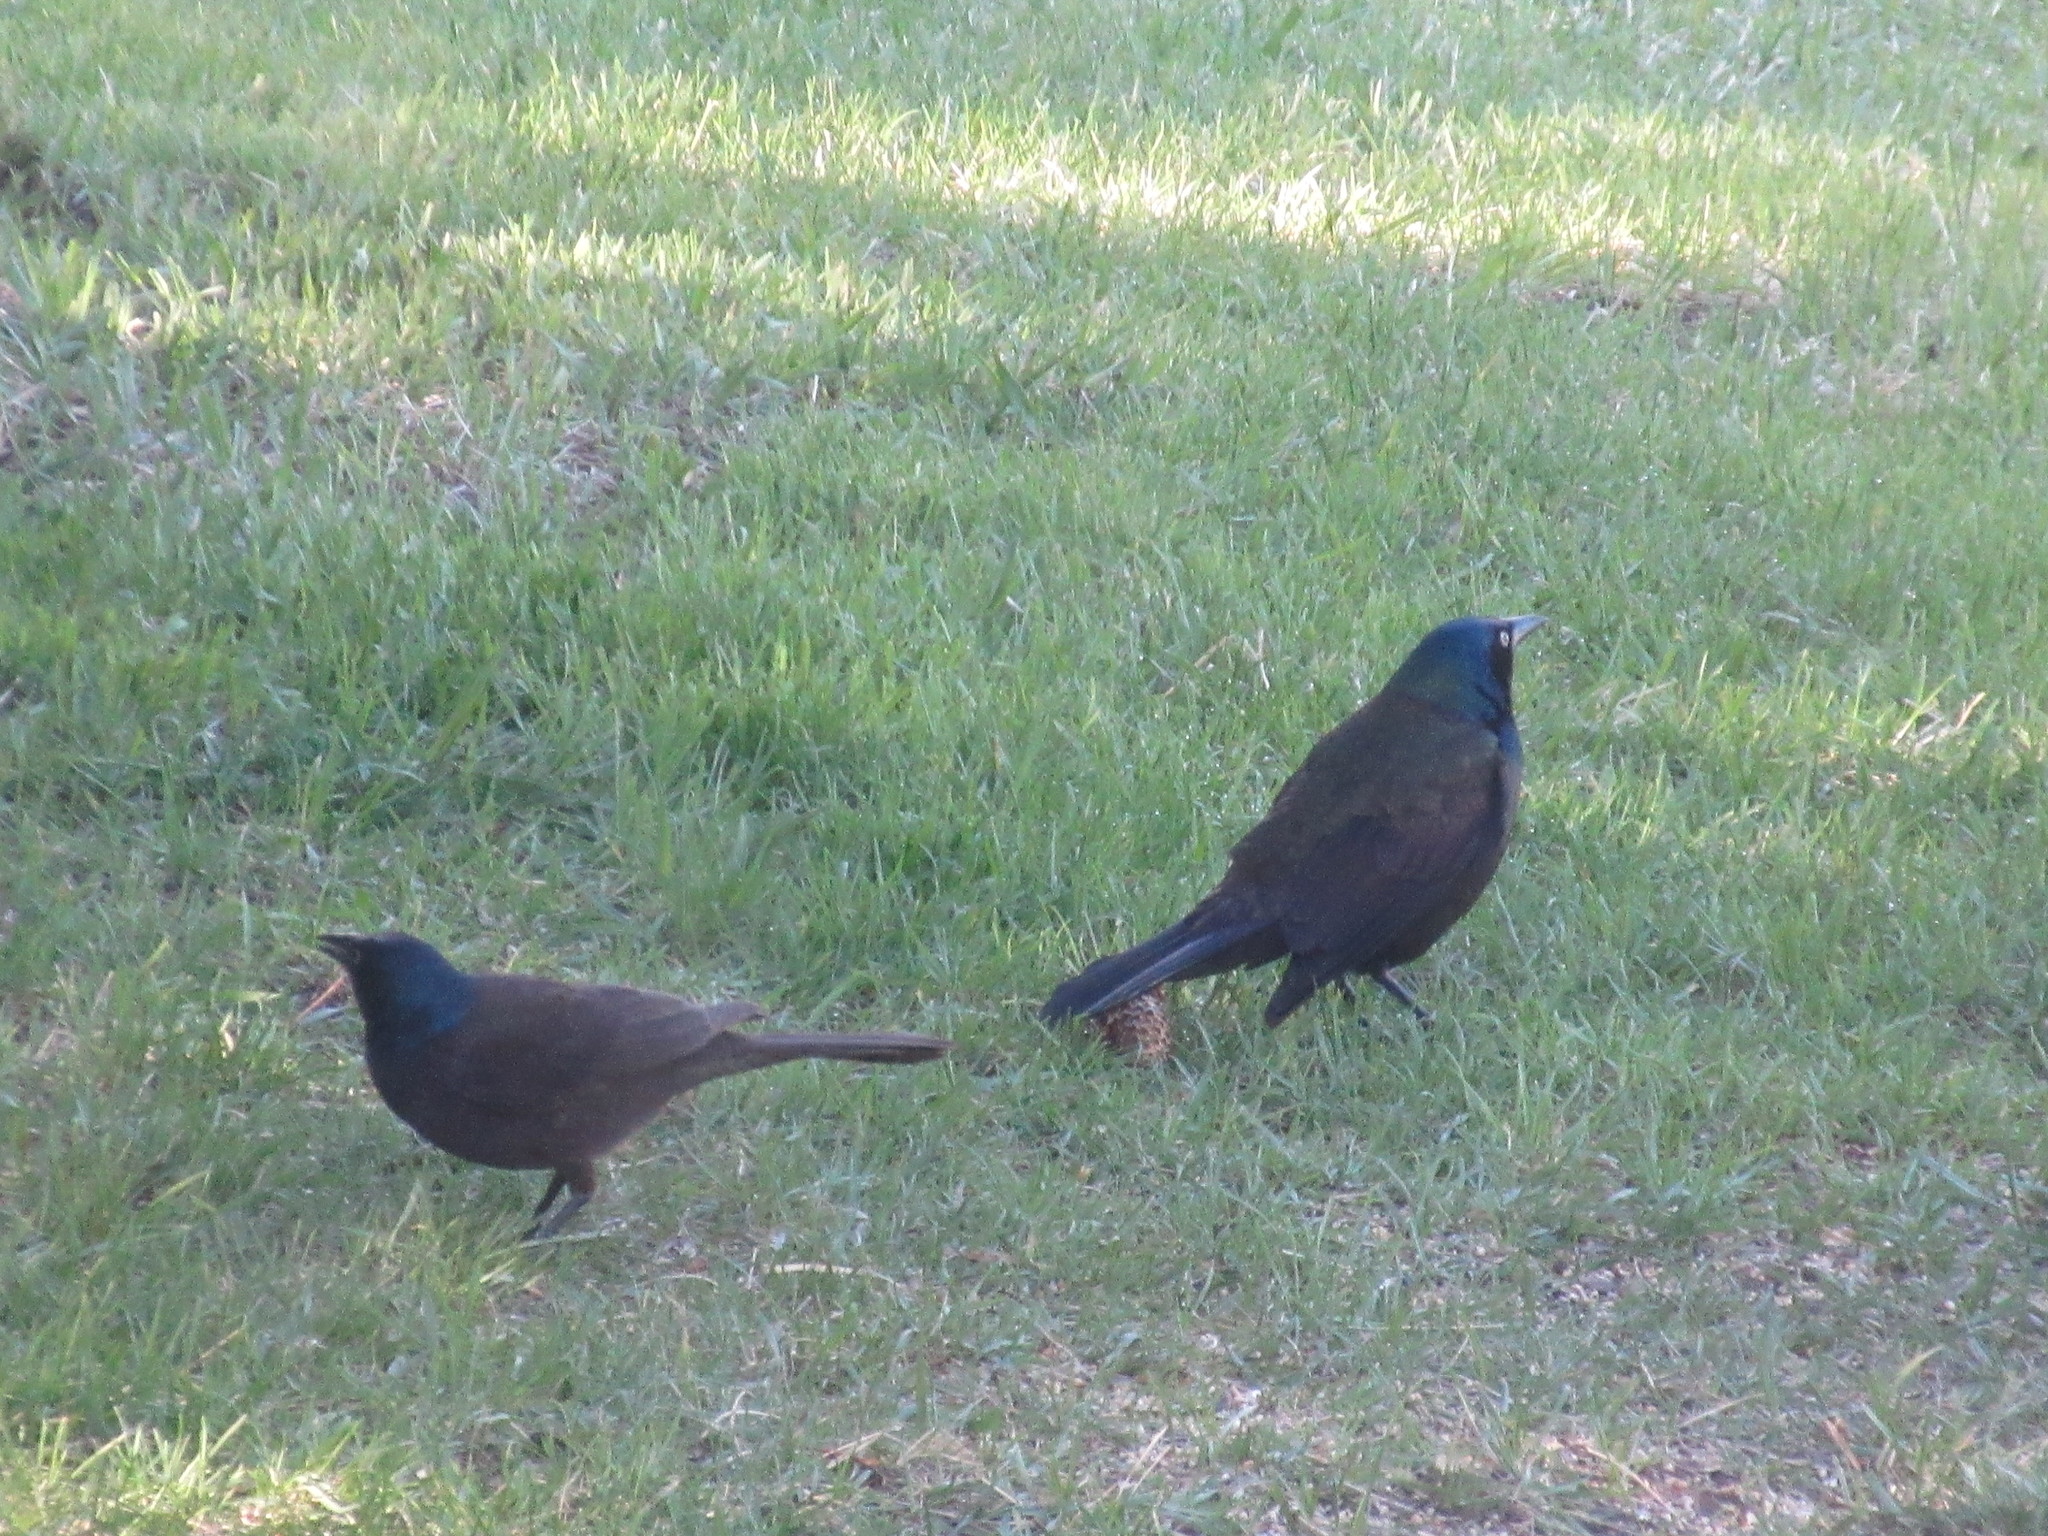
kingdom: Animalia
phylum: Chordata
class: Aves
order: Passeriformes
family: Icteridae
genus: Quiscalus
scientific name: Quiscalus quiscula
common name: Common grackle
